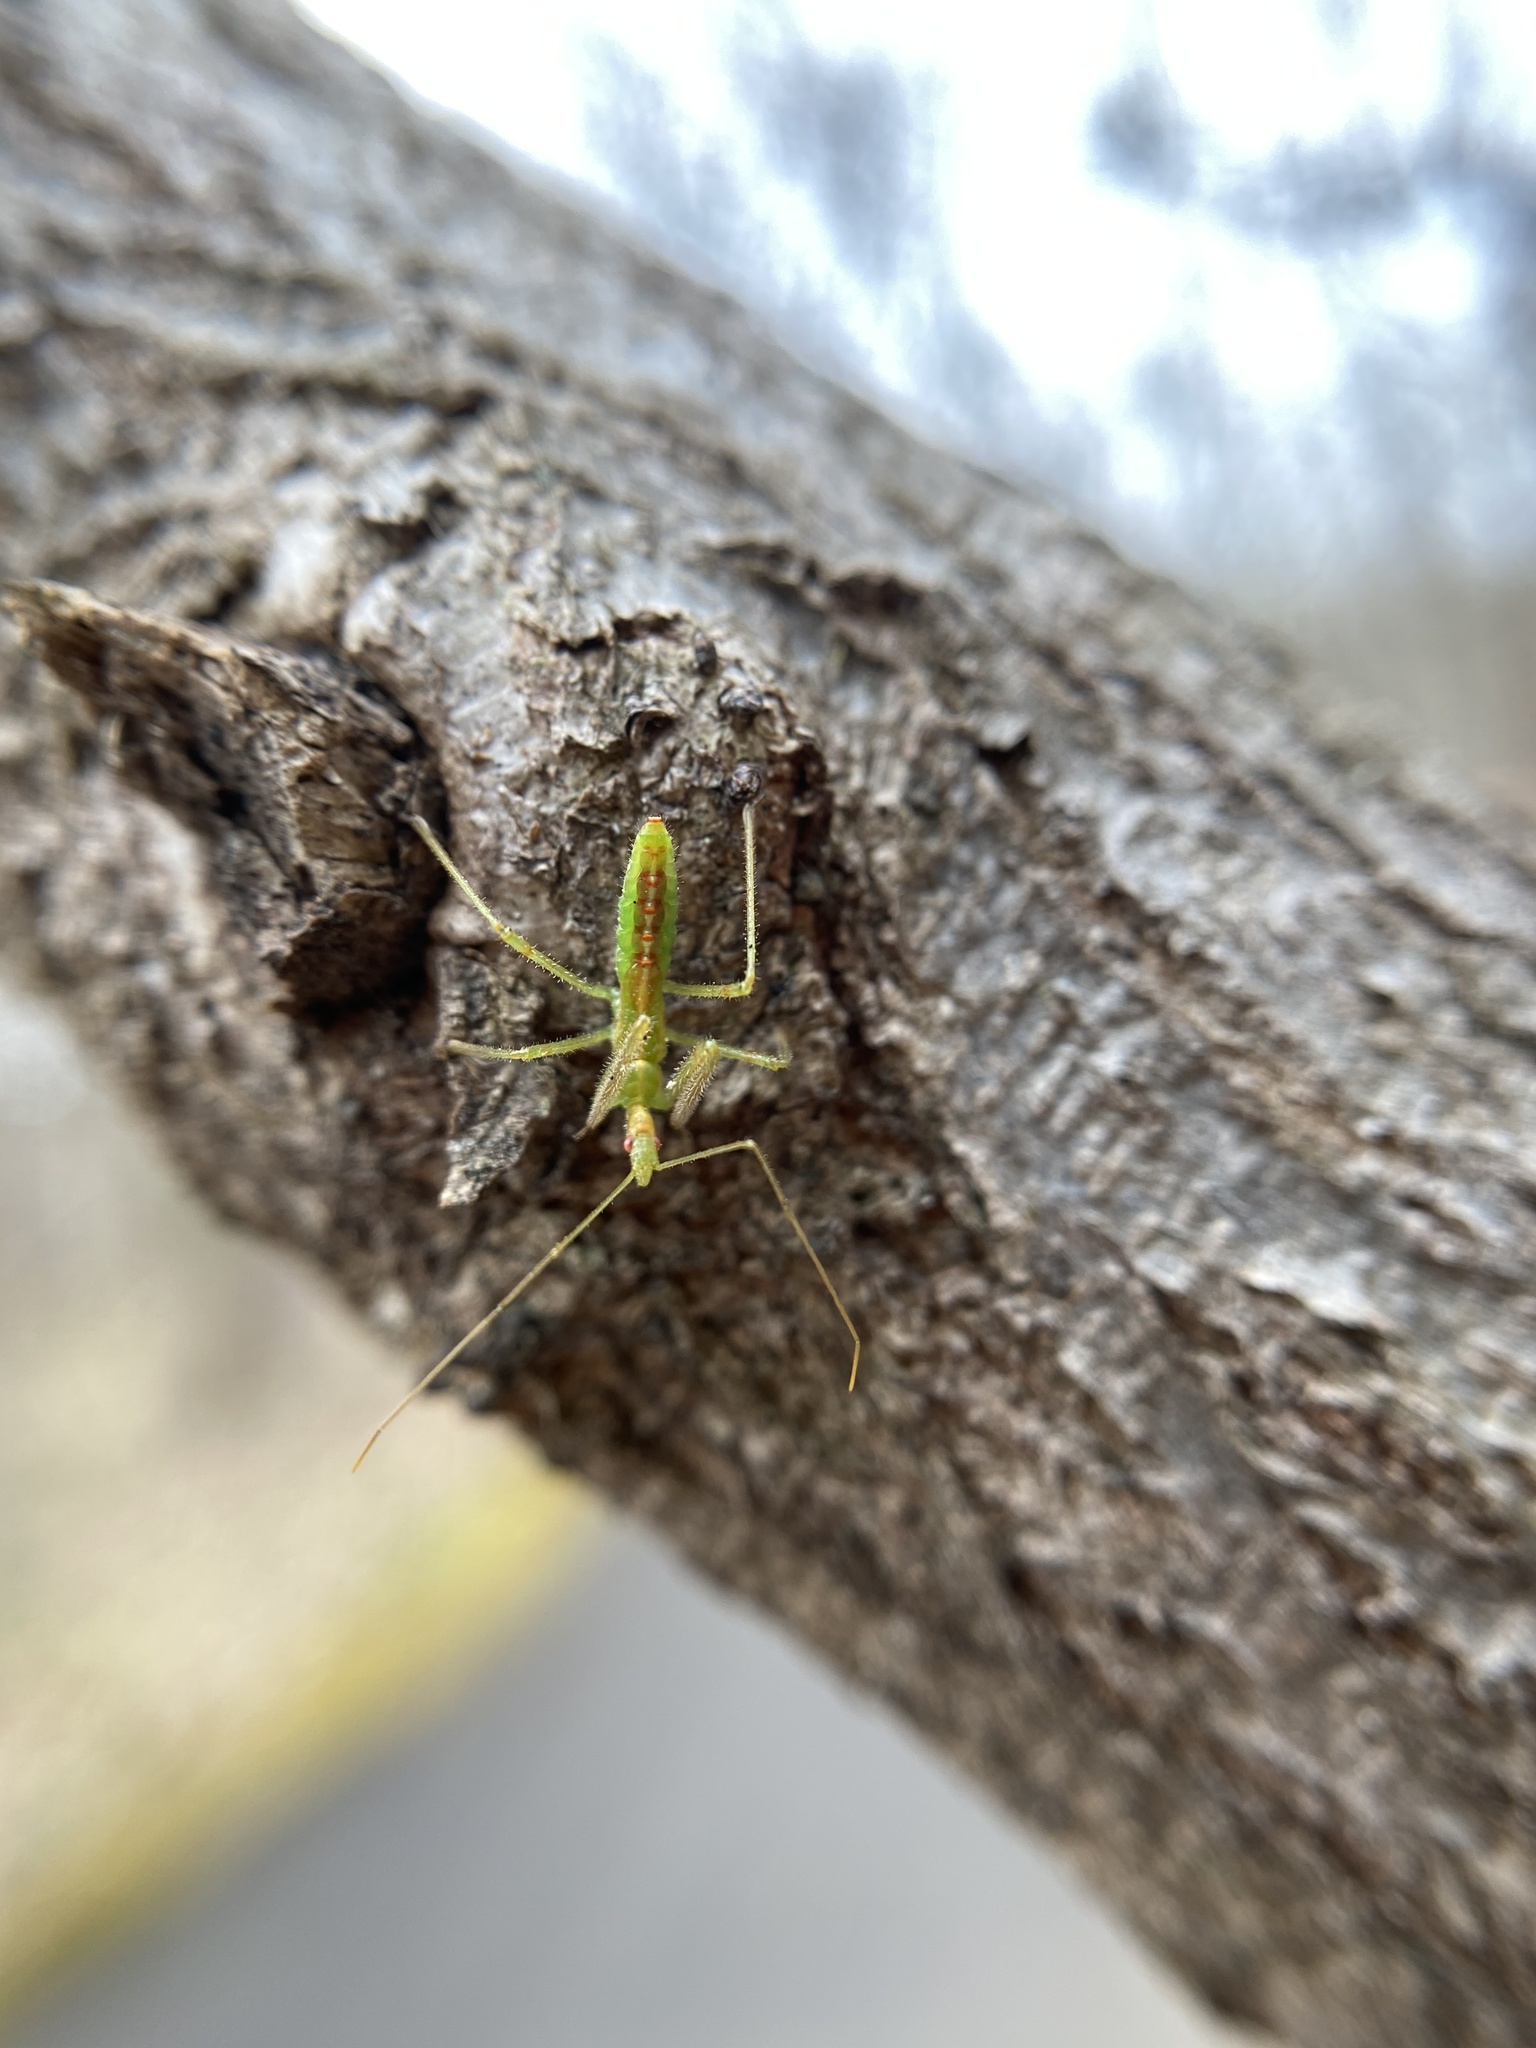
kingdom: Animalia
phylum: Arthropoda
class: Insecta
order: Hemiptera
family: Reduviidae
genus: Zelus
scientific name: Zelus luridus
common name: Pale green assassin bug
